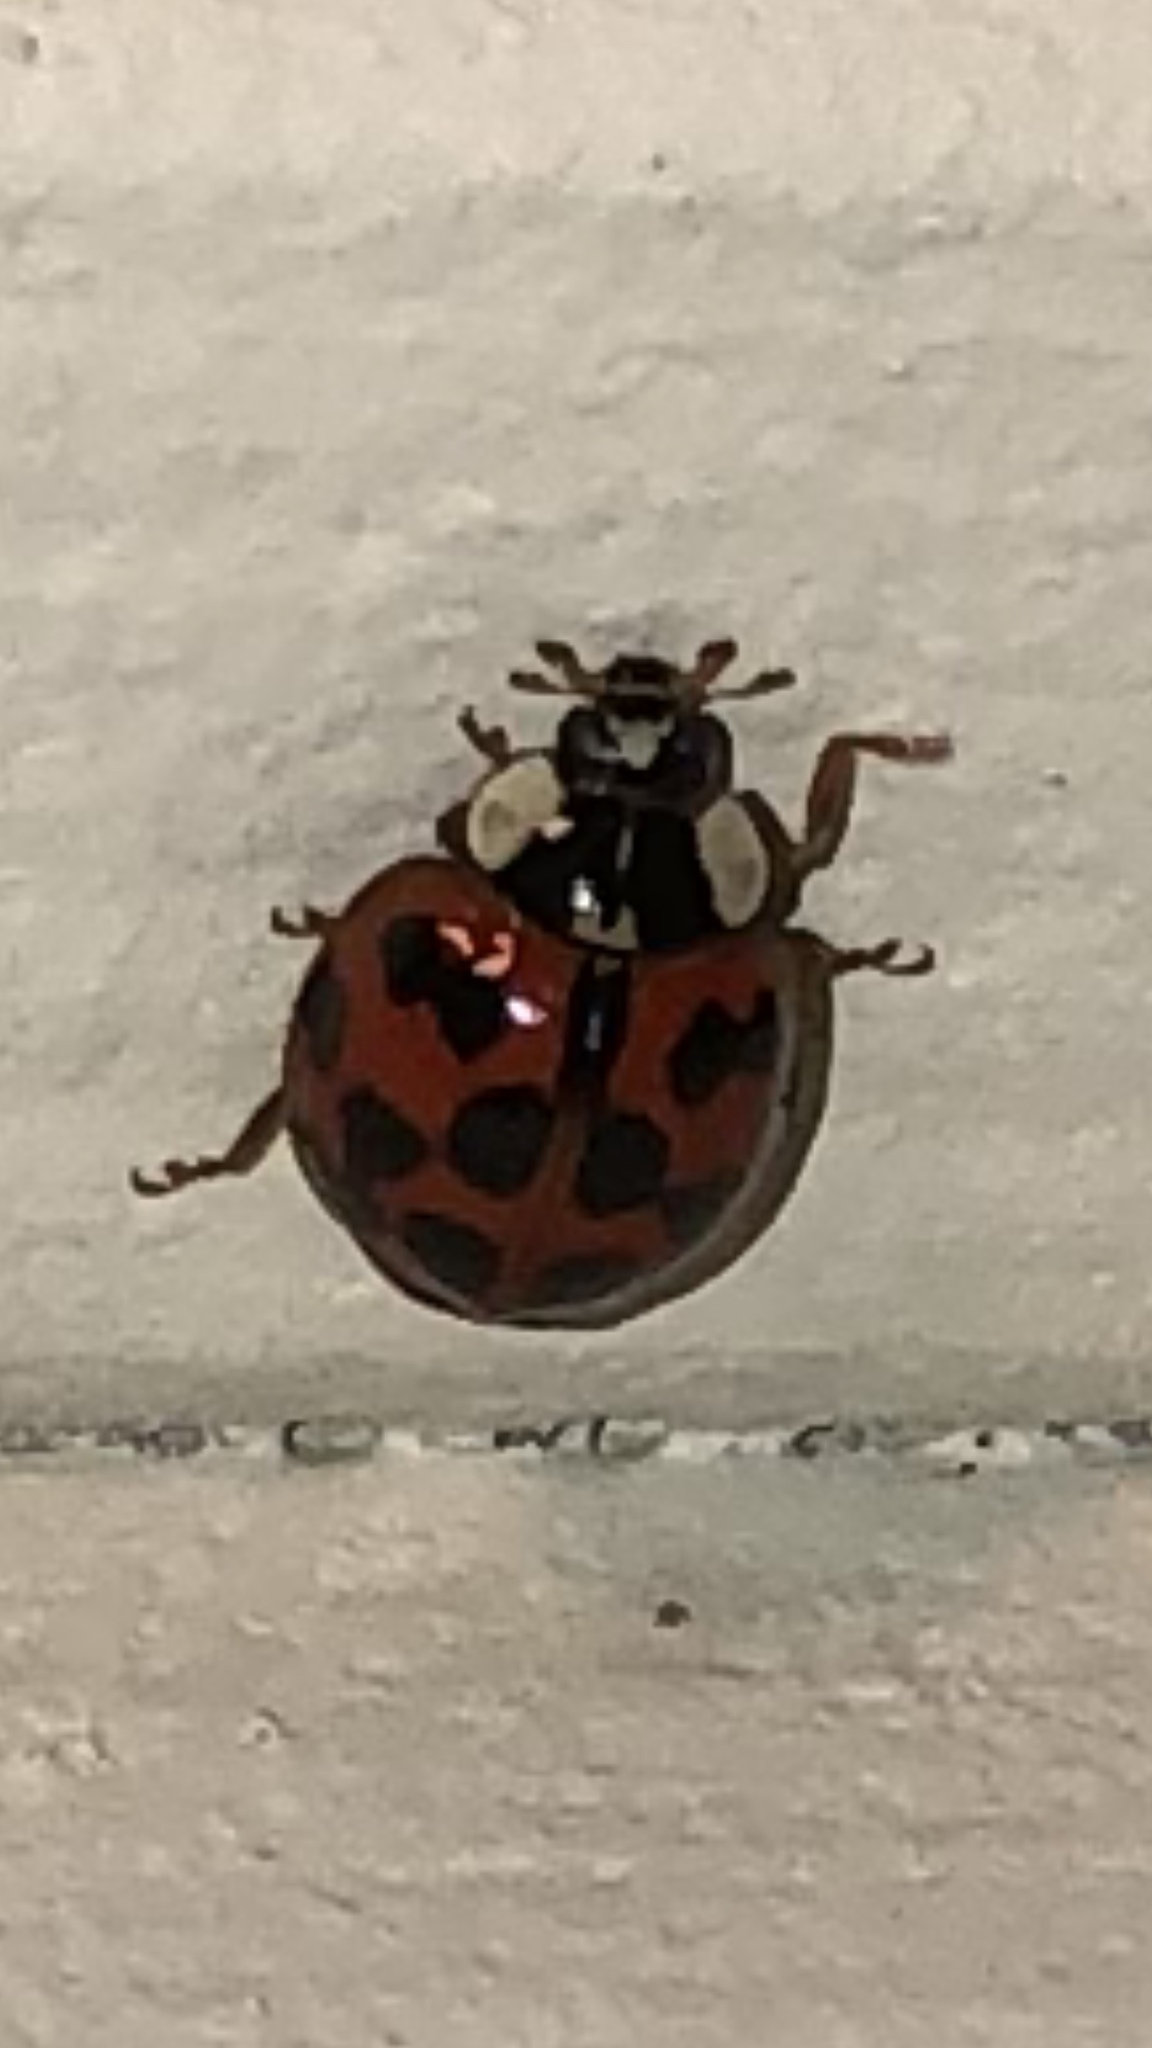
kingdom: Animalia
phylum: Arthropoda
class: Insecta
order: Coleoptera
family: Coccinellidae
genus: Harmonia
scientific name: Harmonia axyridis
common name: Harlequin ladybird
